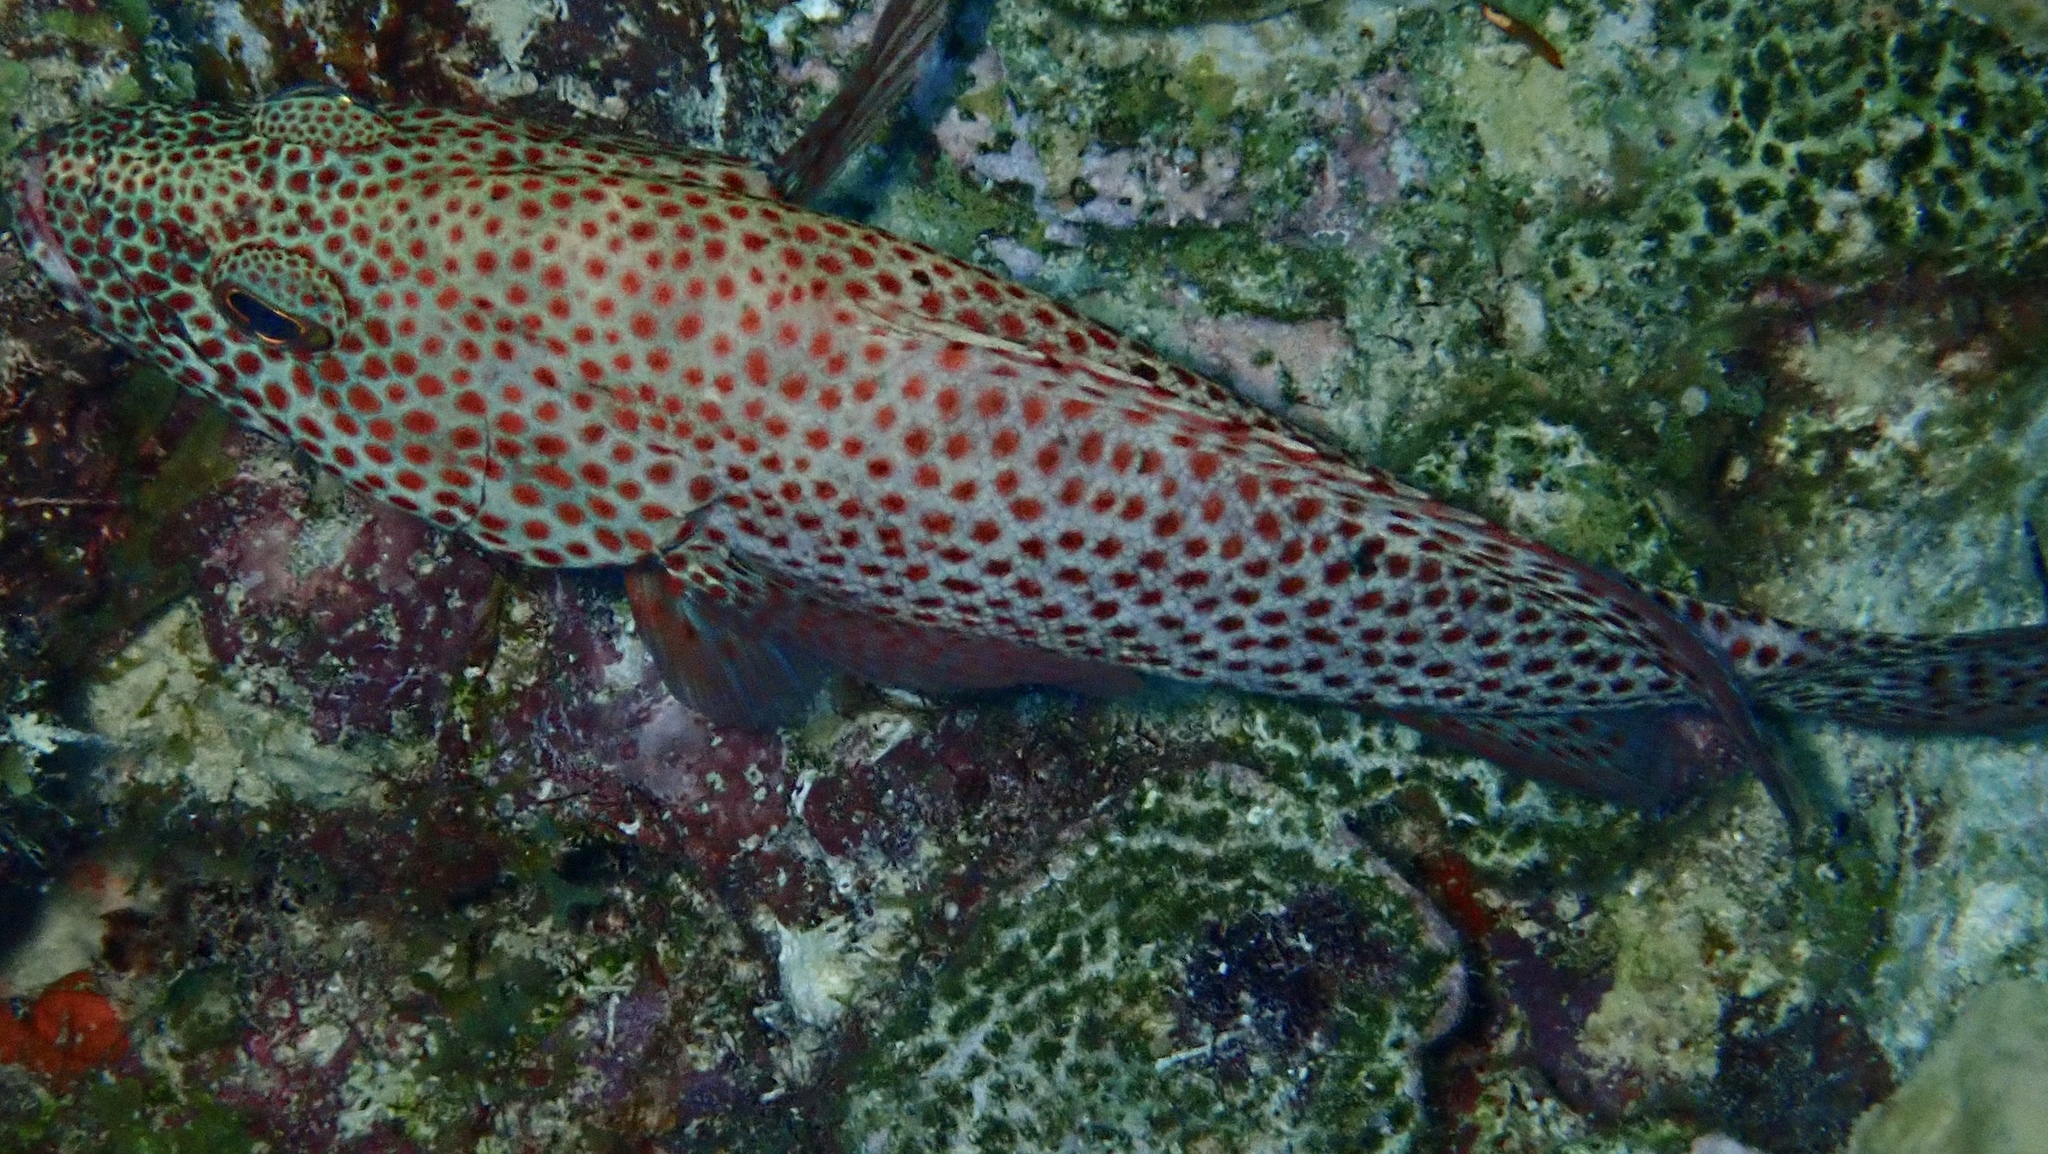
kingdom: Animalia
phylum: Chordata
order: Perciformes
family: Serranidae
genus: Cephalopholis
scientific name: Cephalopholis cruentata
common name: Graysby
